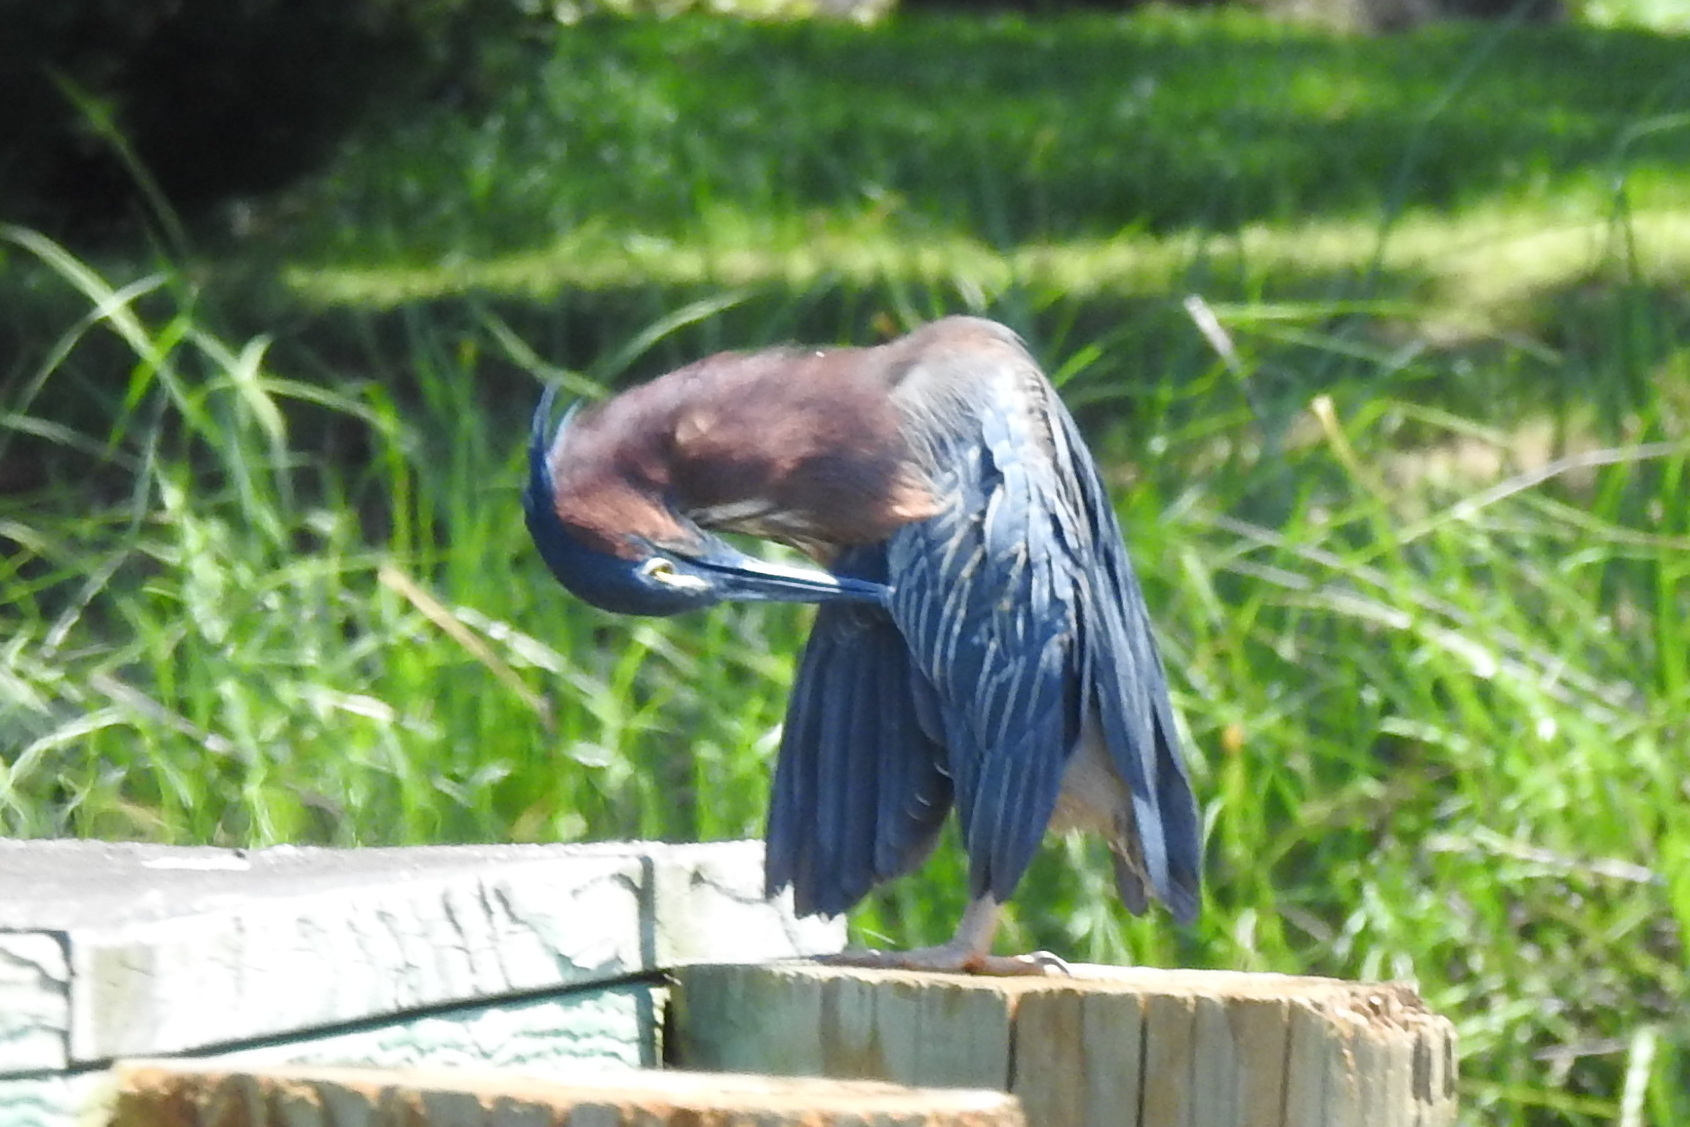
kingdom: Animalia
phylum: Chordata
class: Aves
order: Pelecaniformes
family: Ardeidae
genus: Butorides
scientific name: Butorides virescens
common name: Green heron
